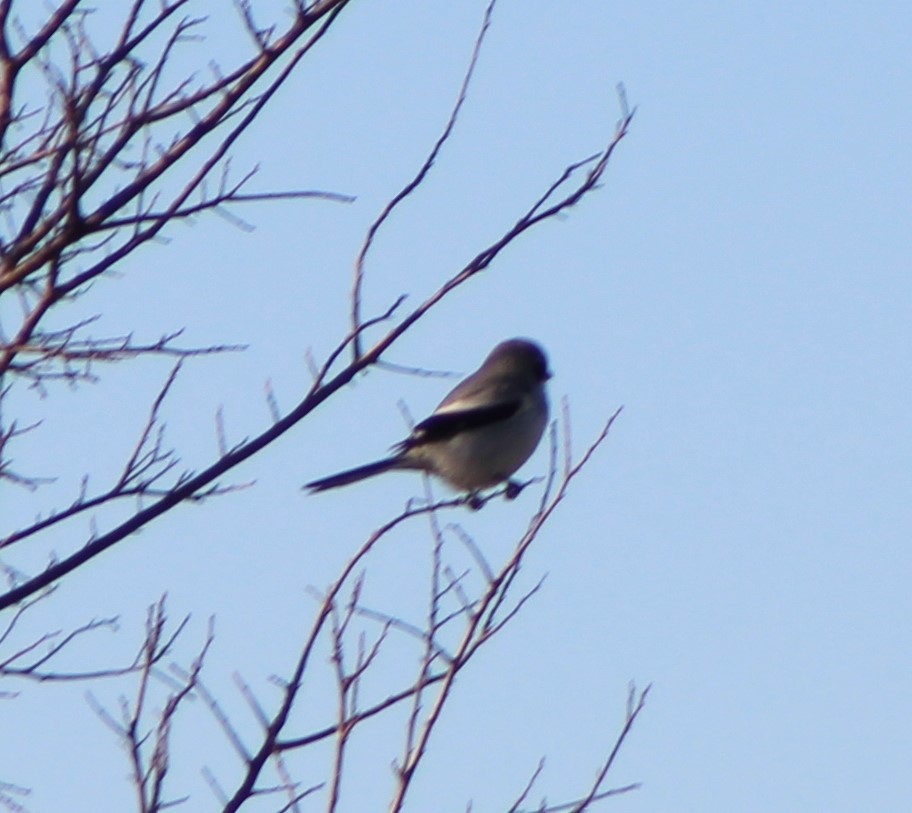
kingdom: Animalia
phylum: Chordata
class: Aves
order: Passeriformes
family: Laniidae
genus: Lanius
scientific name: Lanius ludovicianus
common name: Loggerhead shrike
